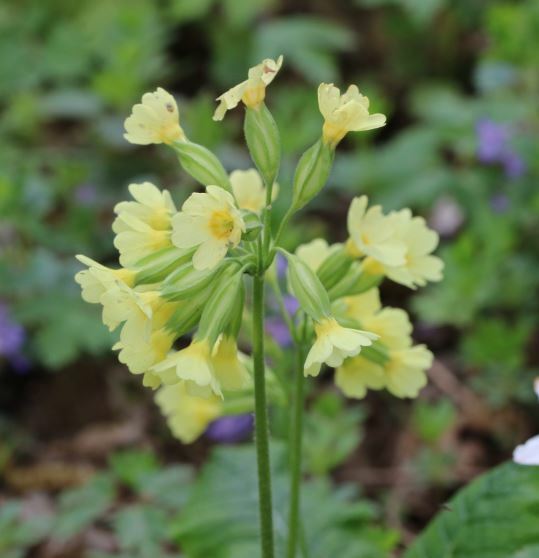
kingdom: Plantae
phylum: Tracheophyta
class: Magnoliopsida
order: Ericales
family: Primulaceae
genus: Primula
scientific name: Primula elatior
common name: Oxlip
